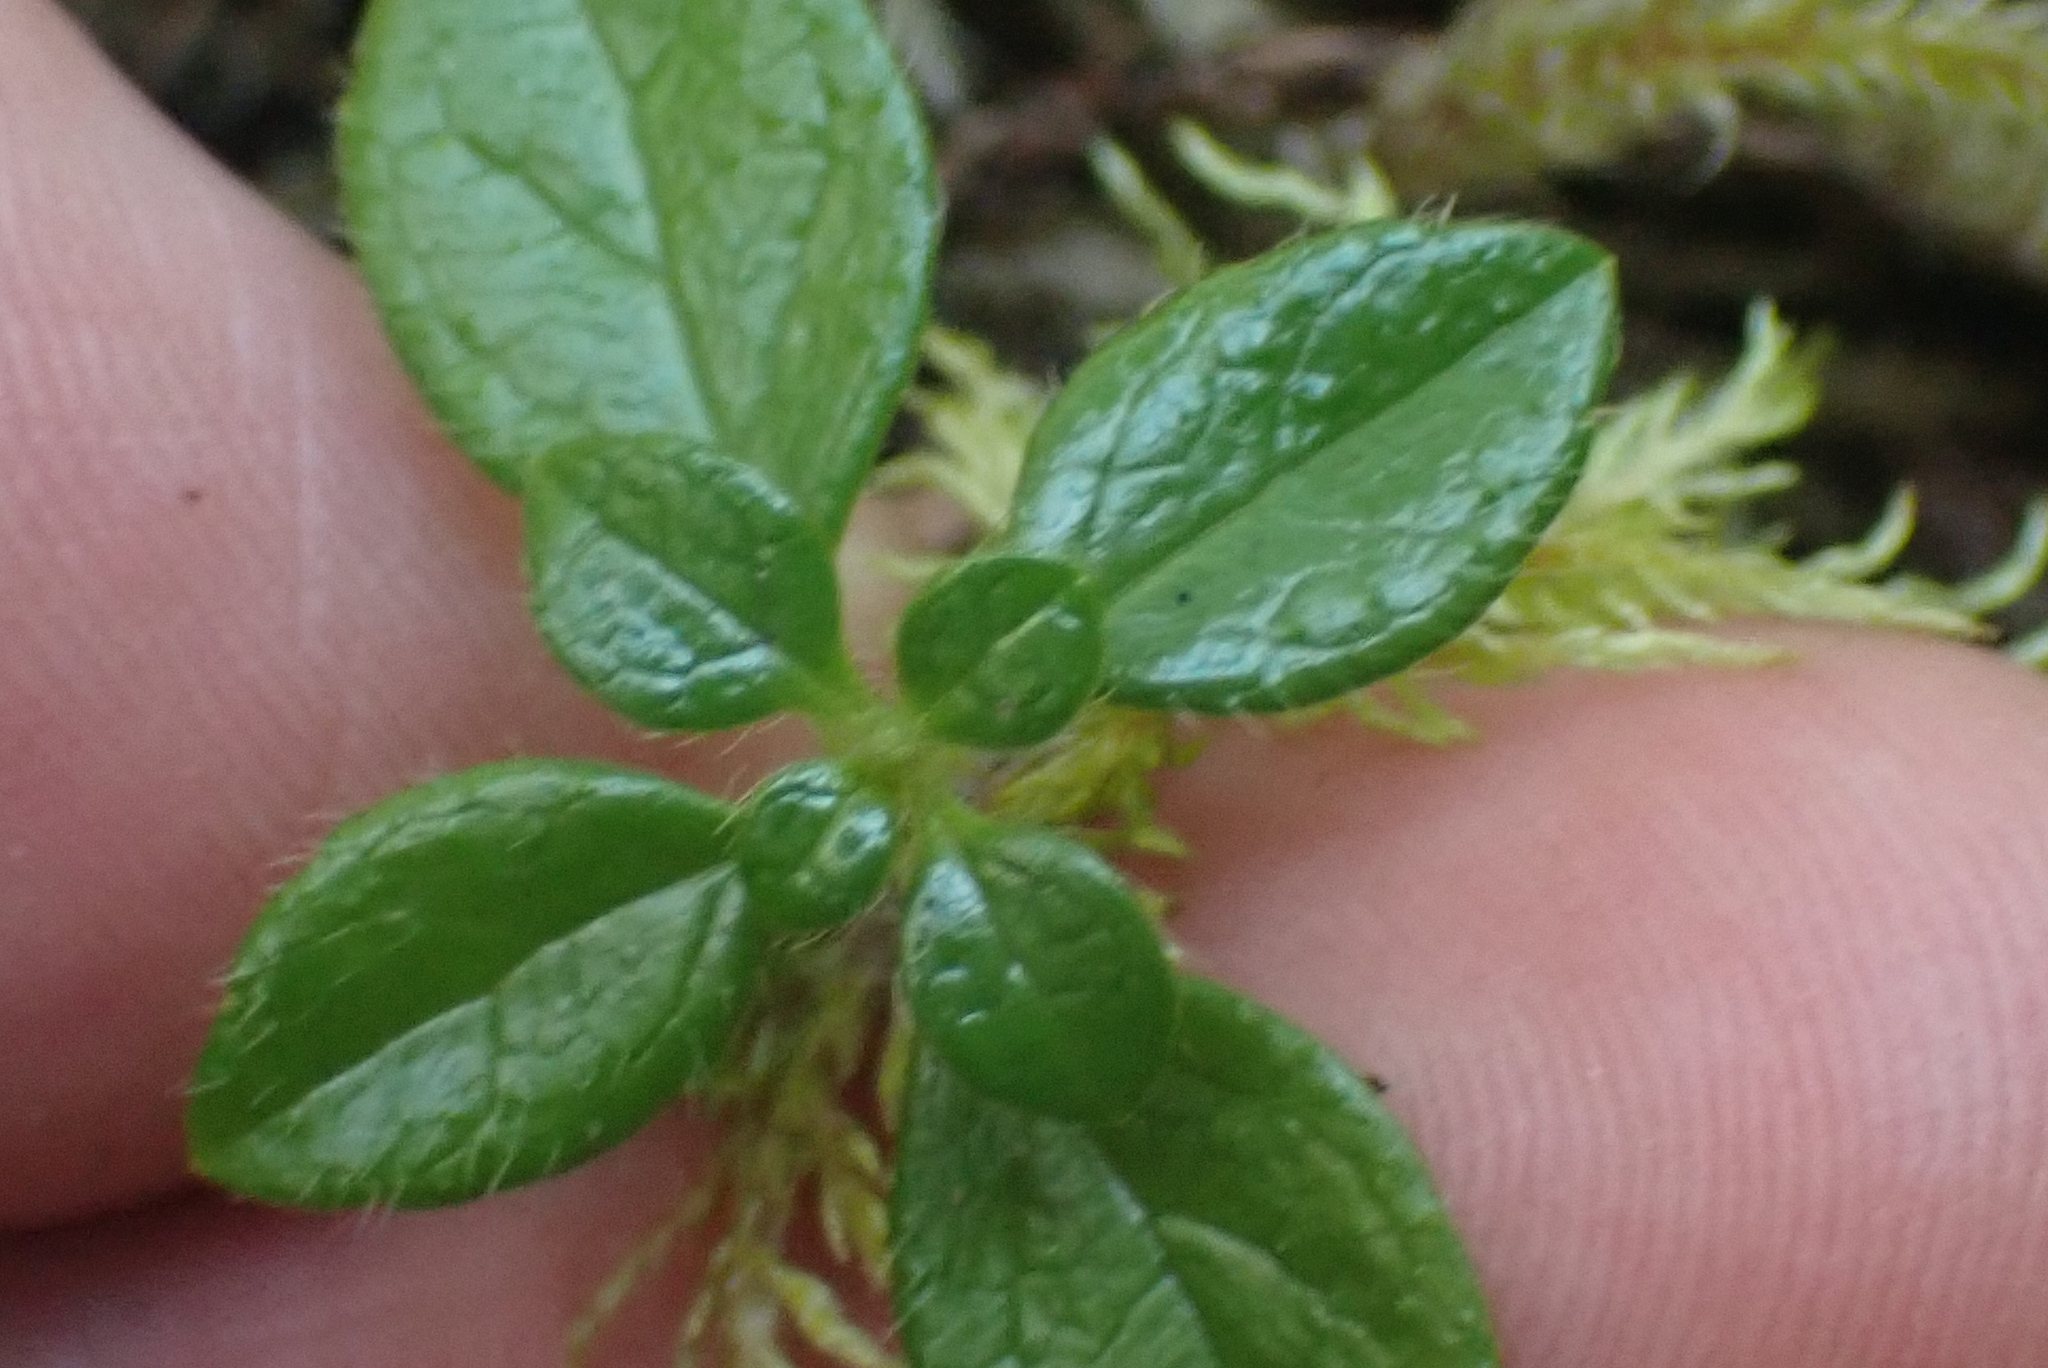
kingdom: Plantae
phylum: Tracheophyta
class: Magnoliopsida
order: Dipsacales
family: Caprifoliaceae
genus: Linnaea
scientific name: Linnaea borealis
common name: Twinflower
